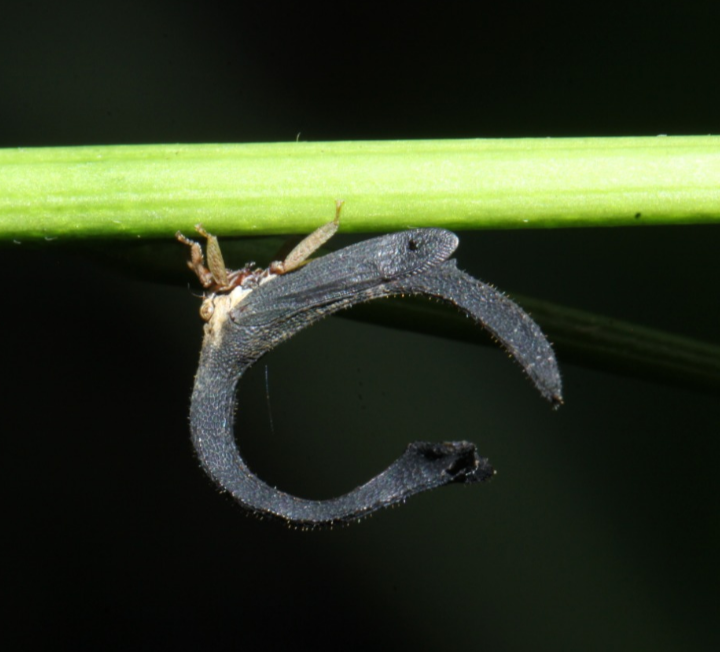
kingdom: Animalia
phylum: Arthropoda
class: Insecta
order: Hemiptera
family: Membracidae
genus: Cladonota
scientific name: Cladonota
